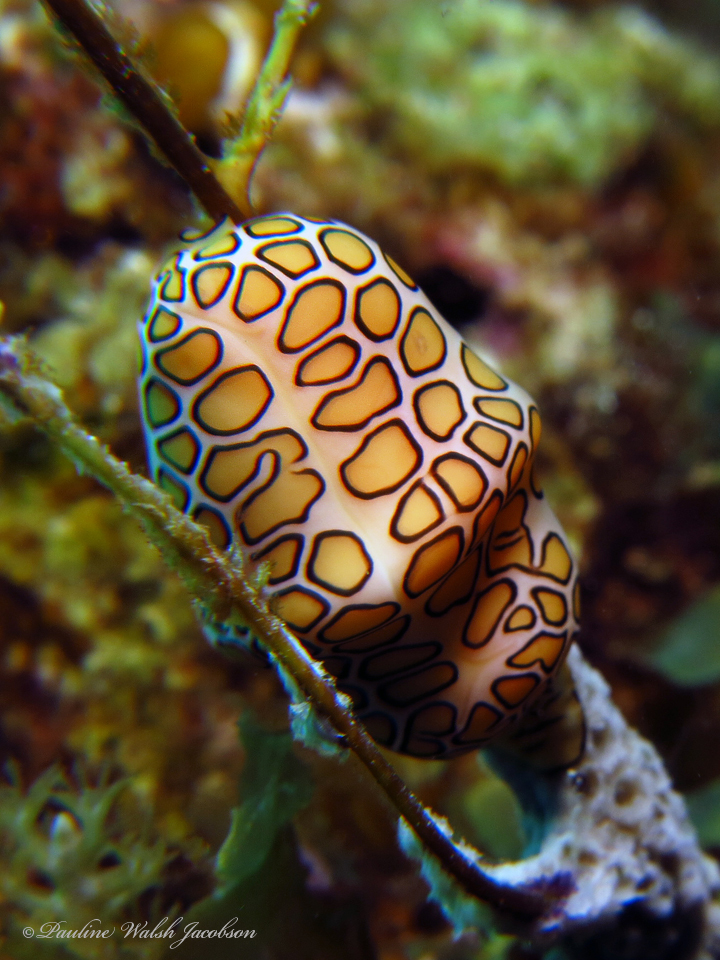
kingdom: Animalia
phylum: Mollusca
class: Gastropoda
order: Littorinimorpha
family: Ovulidae
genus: Cyphoma
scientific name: Cyphoma gibbosum
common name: Flamingo tongue
